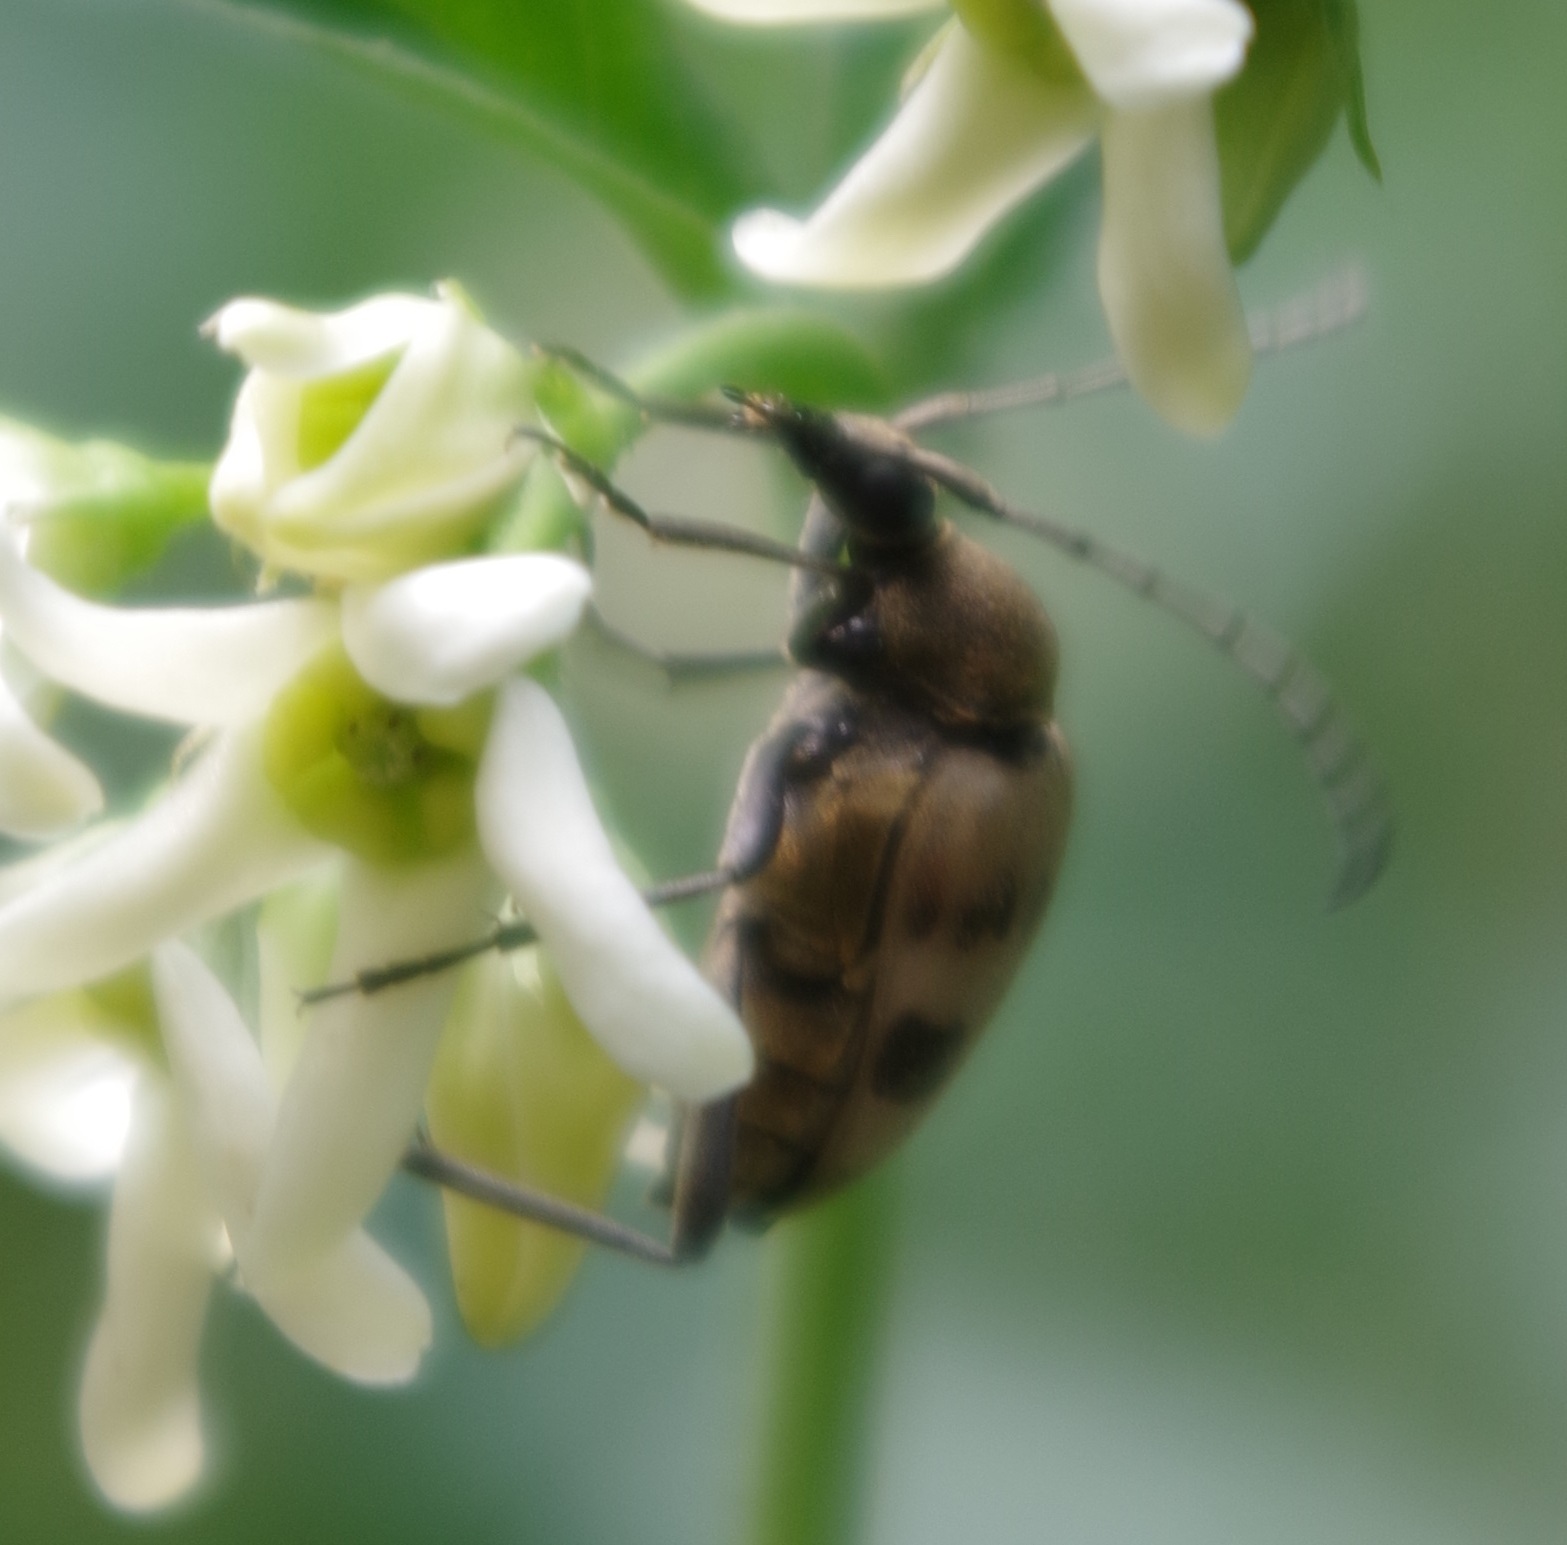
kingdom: Animalia
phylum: Arthropoda
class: Insecta
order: Coleoptera
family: Cerambycidae
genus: Pachytodes
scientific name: Pachytodes cerambyciformis
